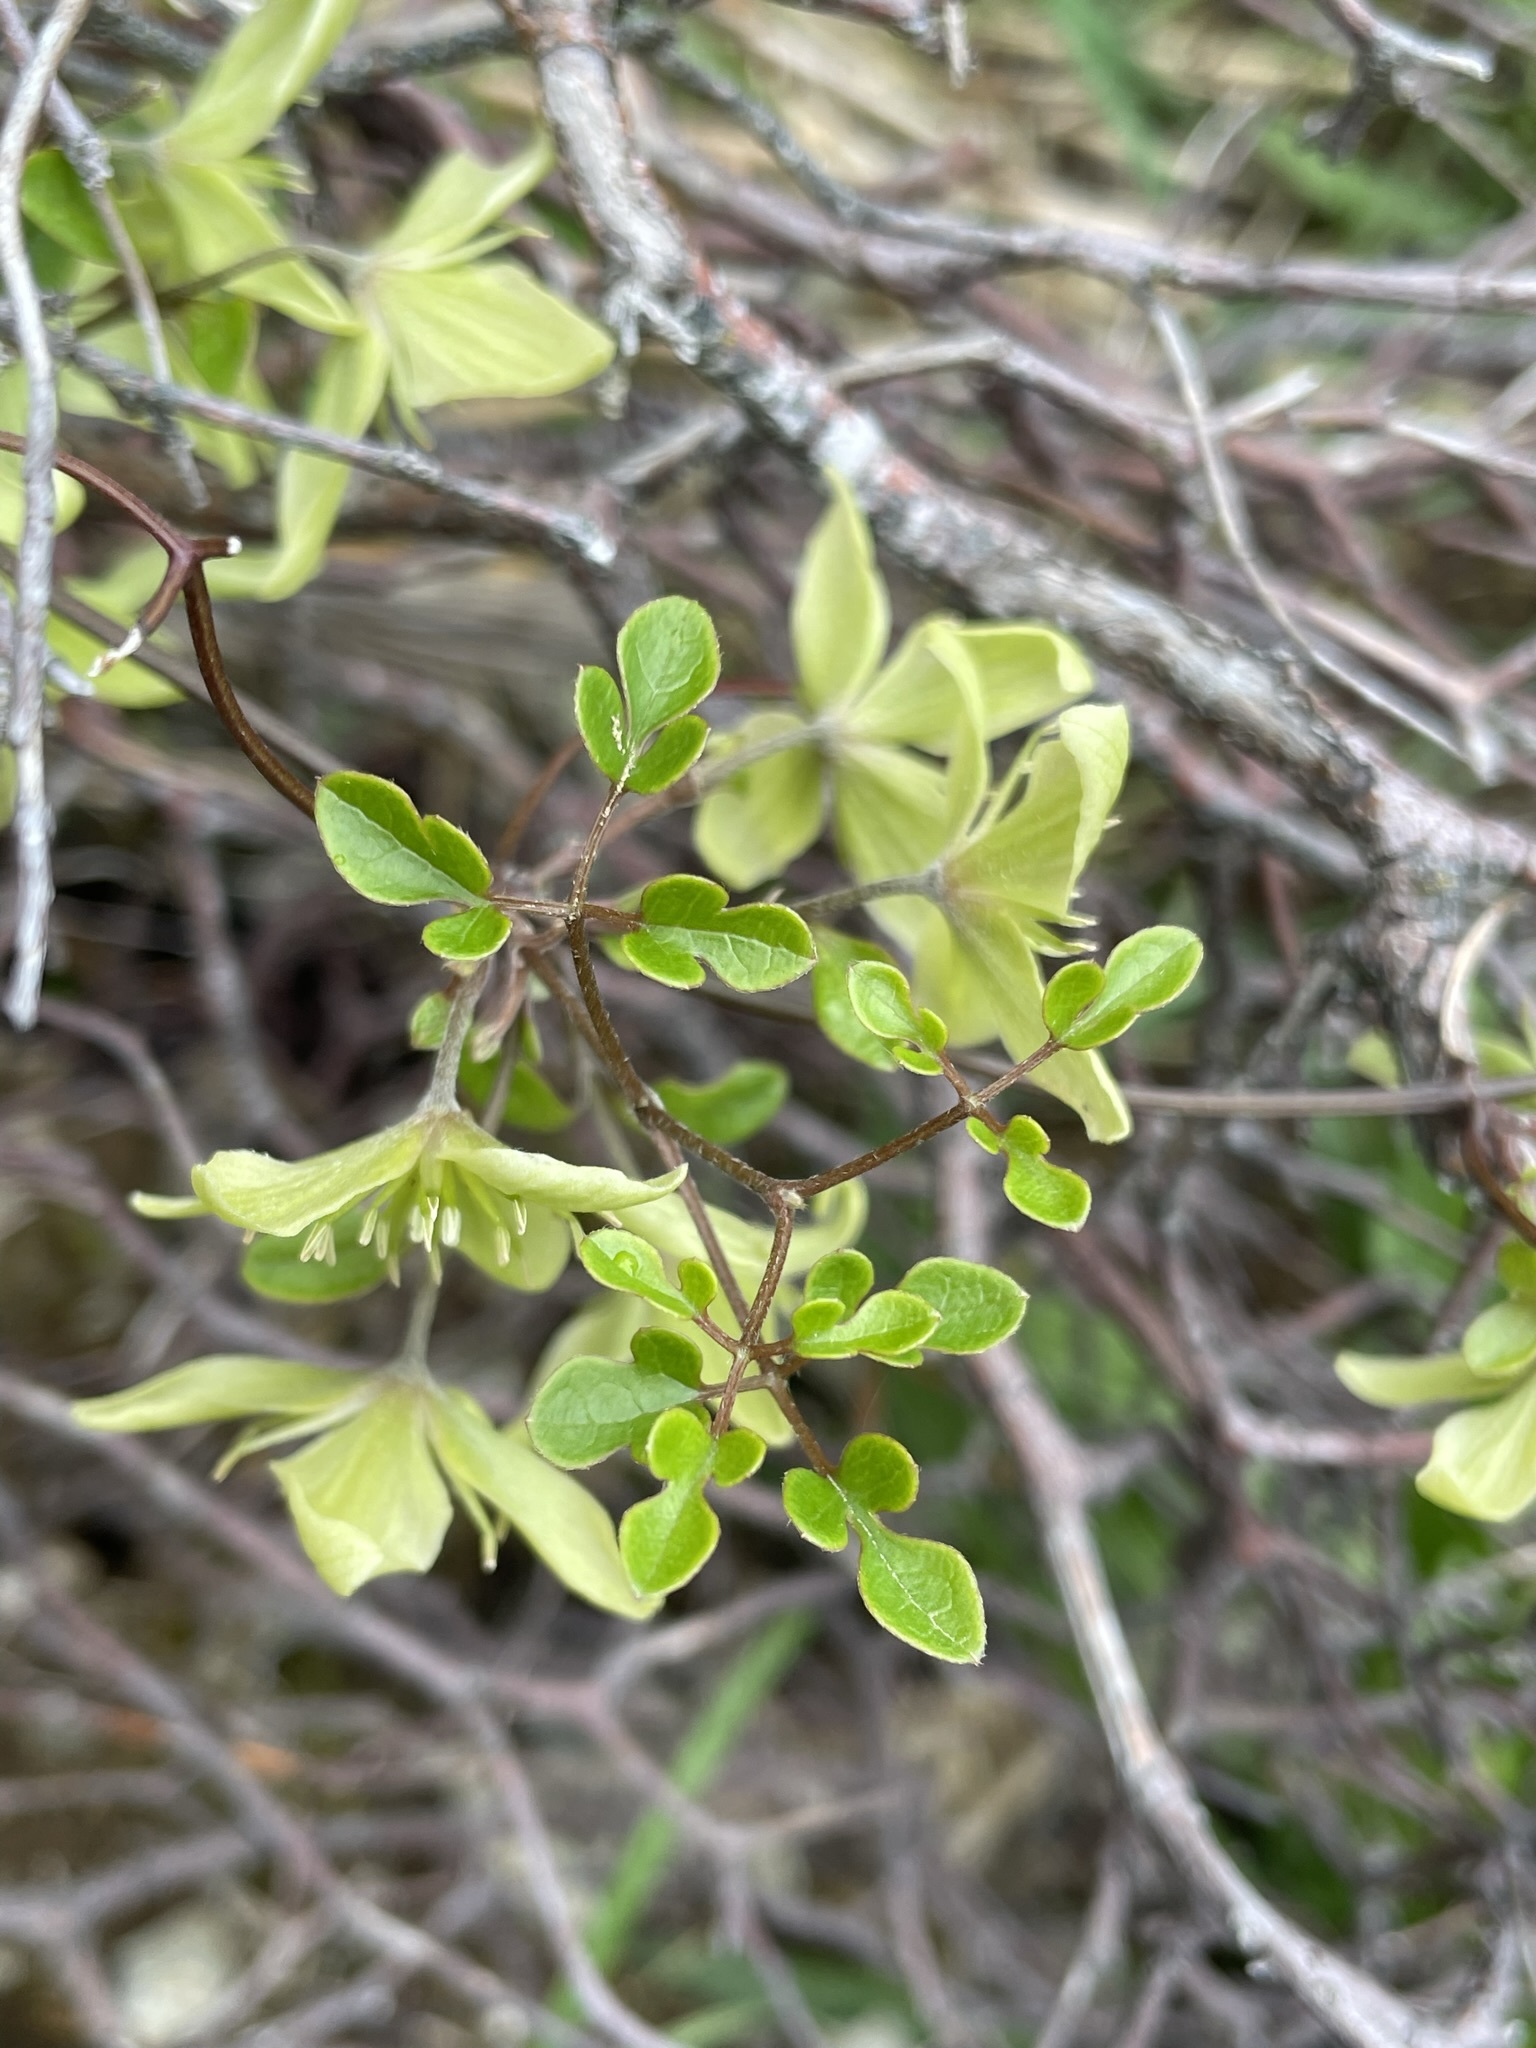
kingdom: Plantae
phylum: Tracheophyta
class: Magnoliopsida
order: Ranunculales
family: Ranunculaceae
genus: Clematis
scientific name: Clematis marata
